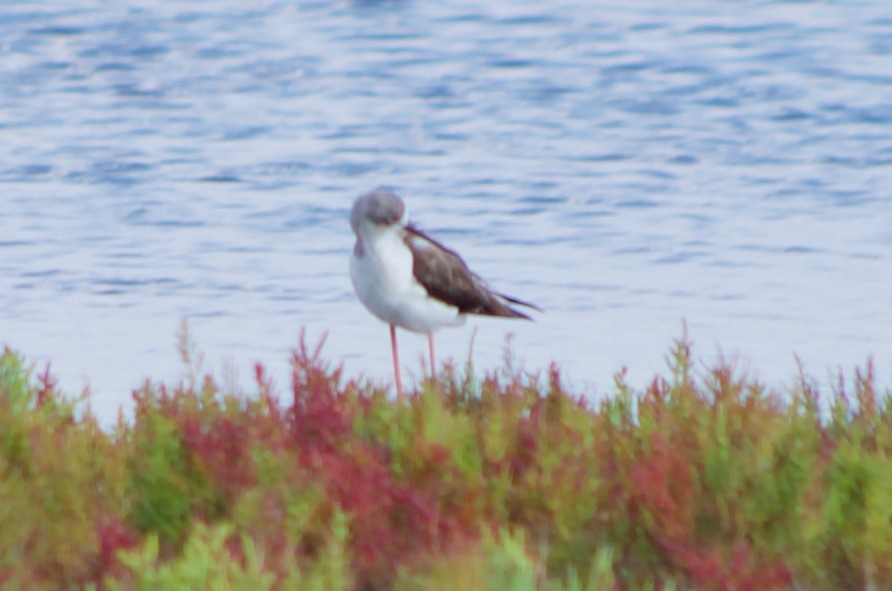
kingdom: Animalia
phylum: Chordata
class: Aves
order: Charadriiformes
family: Recurvirostridae
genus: Himantopus
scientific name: Himantopus himantopus
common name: Black-winged stilt
